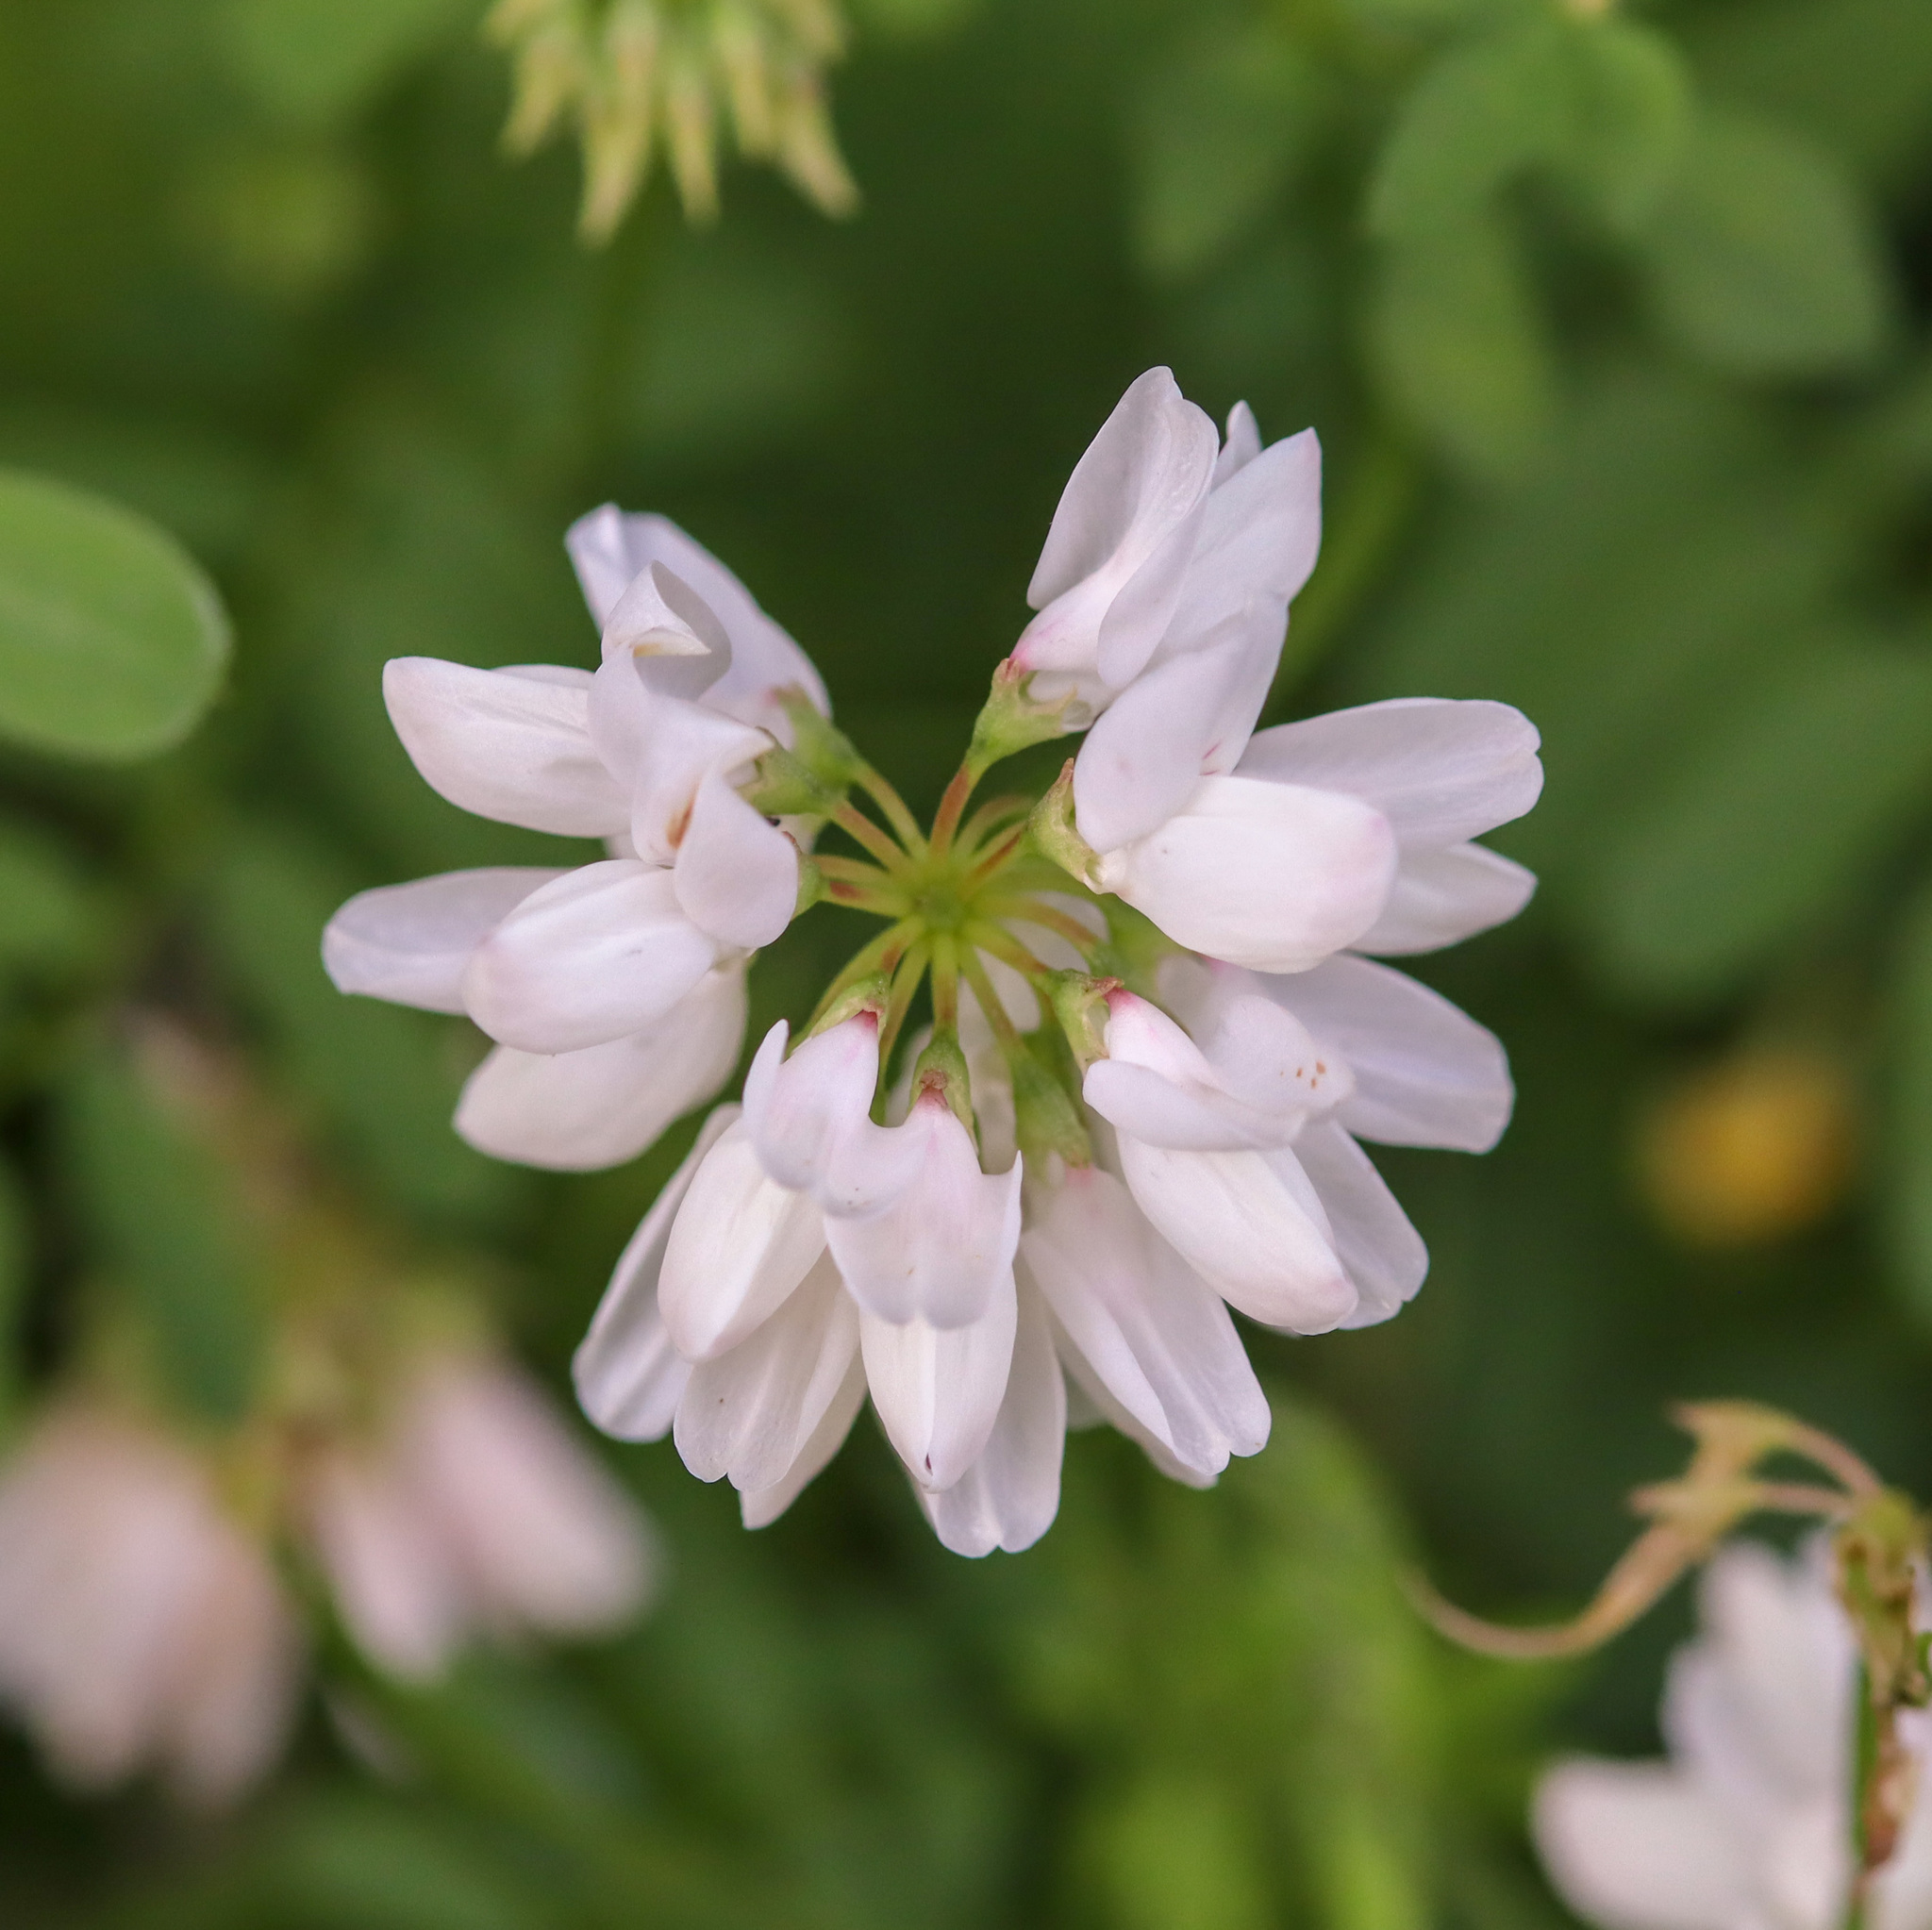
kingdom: Plantae
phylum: Tracheophyta
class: Magnoliopsida
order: Fabales
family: Fabaceae
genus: Coronilla
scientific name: Coronilla varia
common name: Crownvetch
